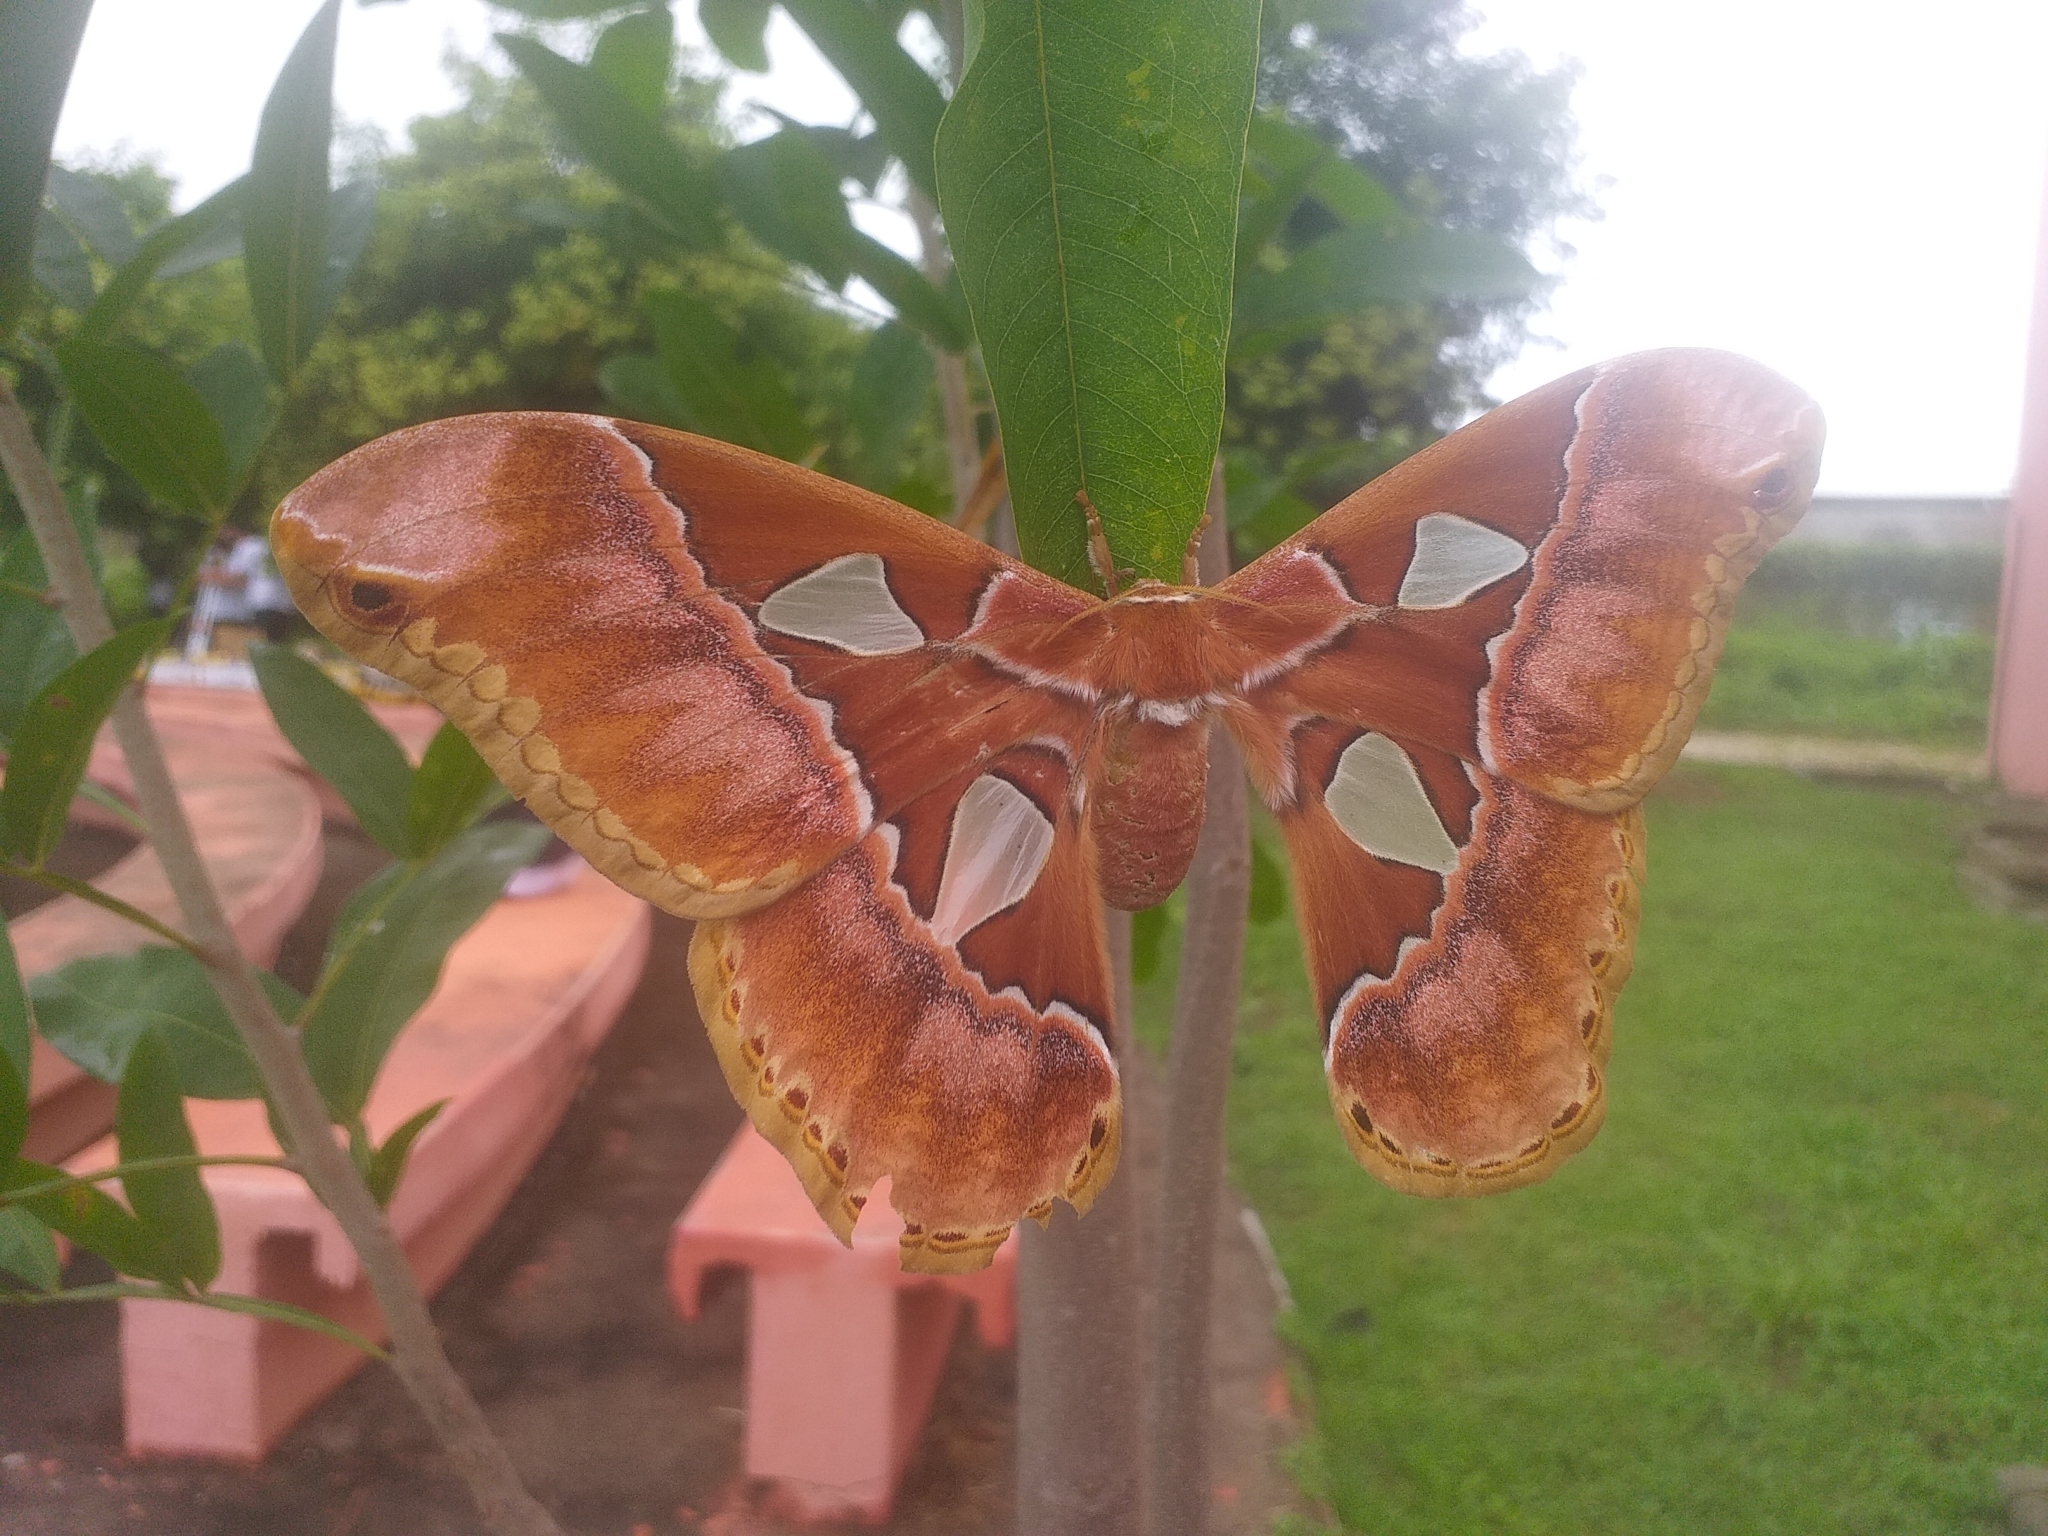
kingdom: Animalia
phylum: Arthropoda
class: Insecta
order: Lepidoptera
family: Saturniidae
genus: Rothschildia
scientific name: Rothschildia speculifer
